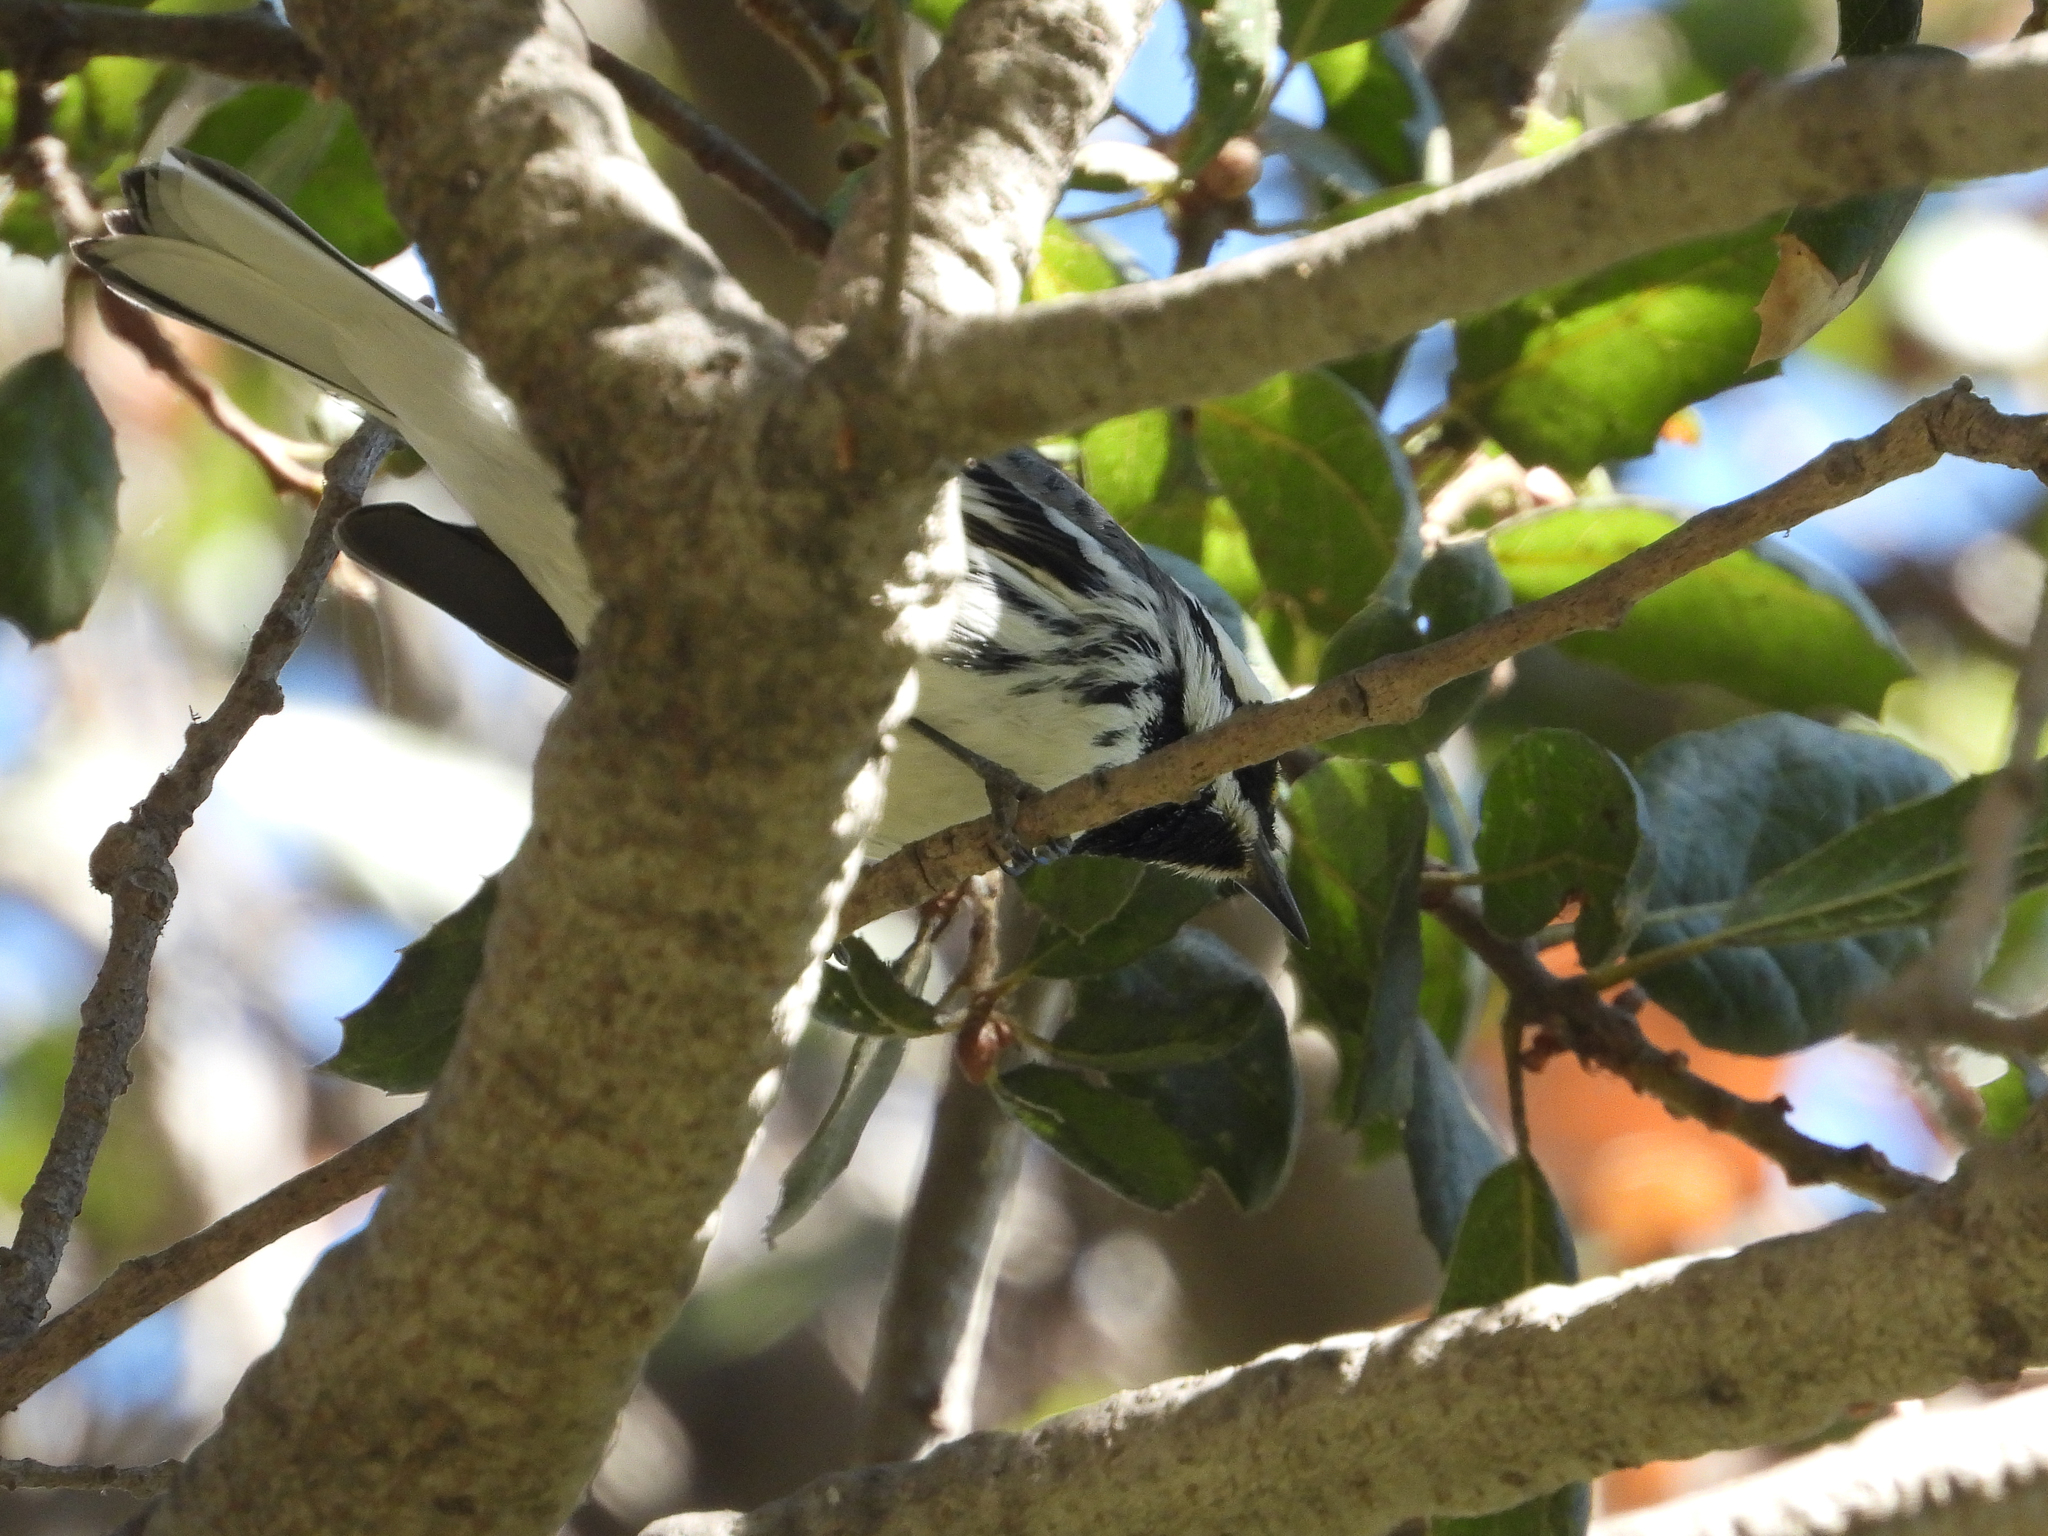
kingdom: Animalia
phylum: Chordata
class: Aves
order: Passeriformes
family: Parulidae
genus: Setophaga
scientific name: Setophaga nigrescens
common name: Black-throated gray warbler
